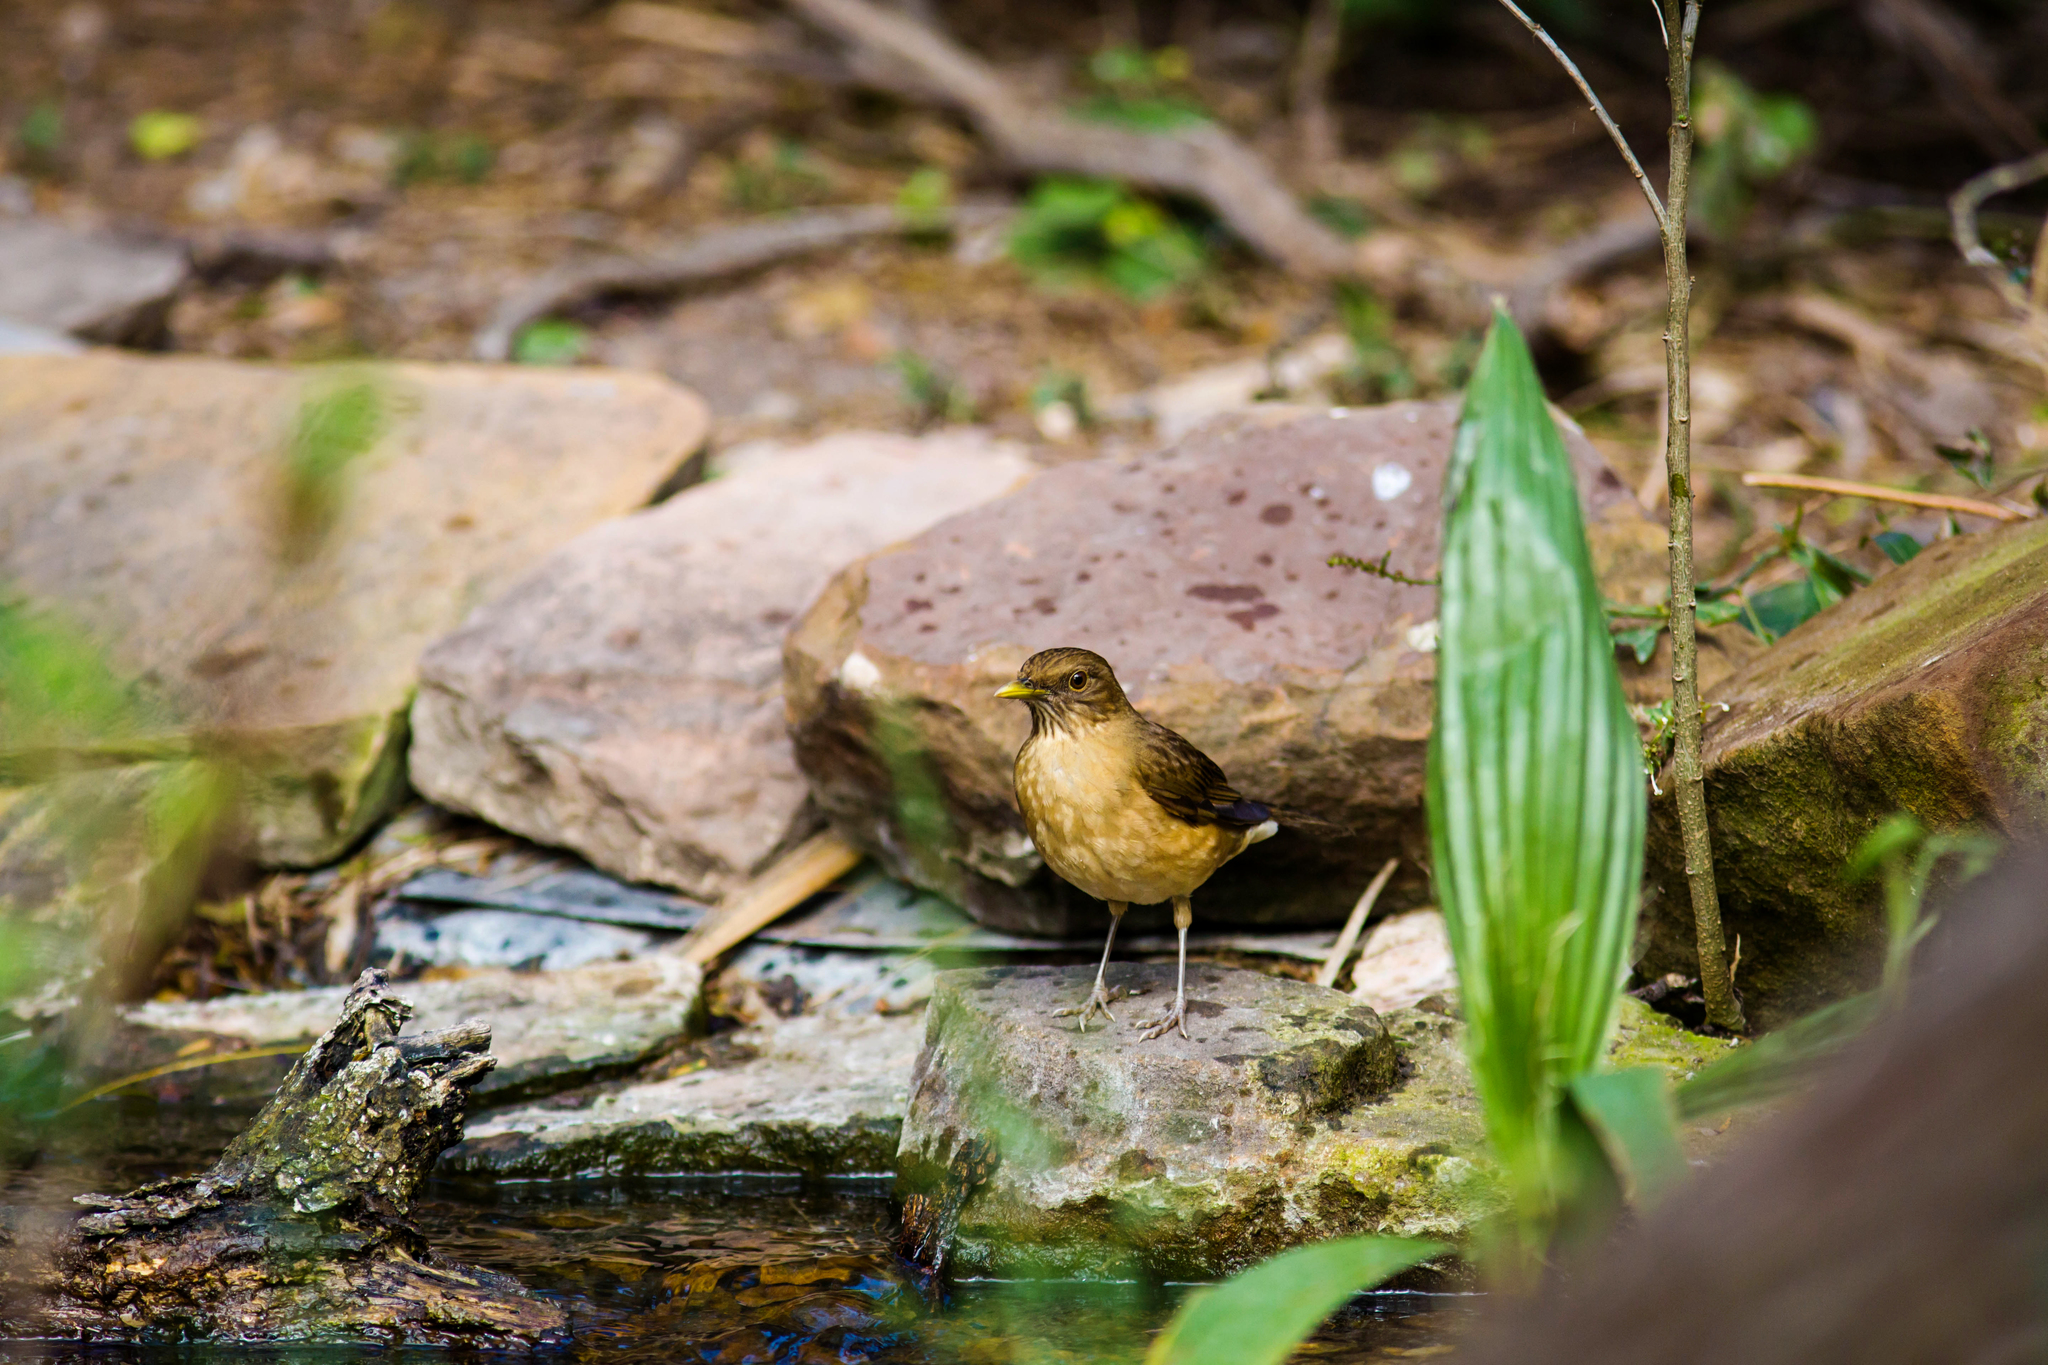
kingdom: Animalia
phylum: Chordata
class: Aves
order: Passeriformes
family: Turdidae
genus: Turdus
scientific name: Turdus grayi
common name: Clay-colored thrush
